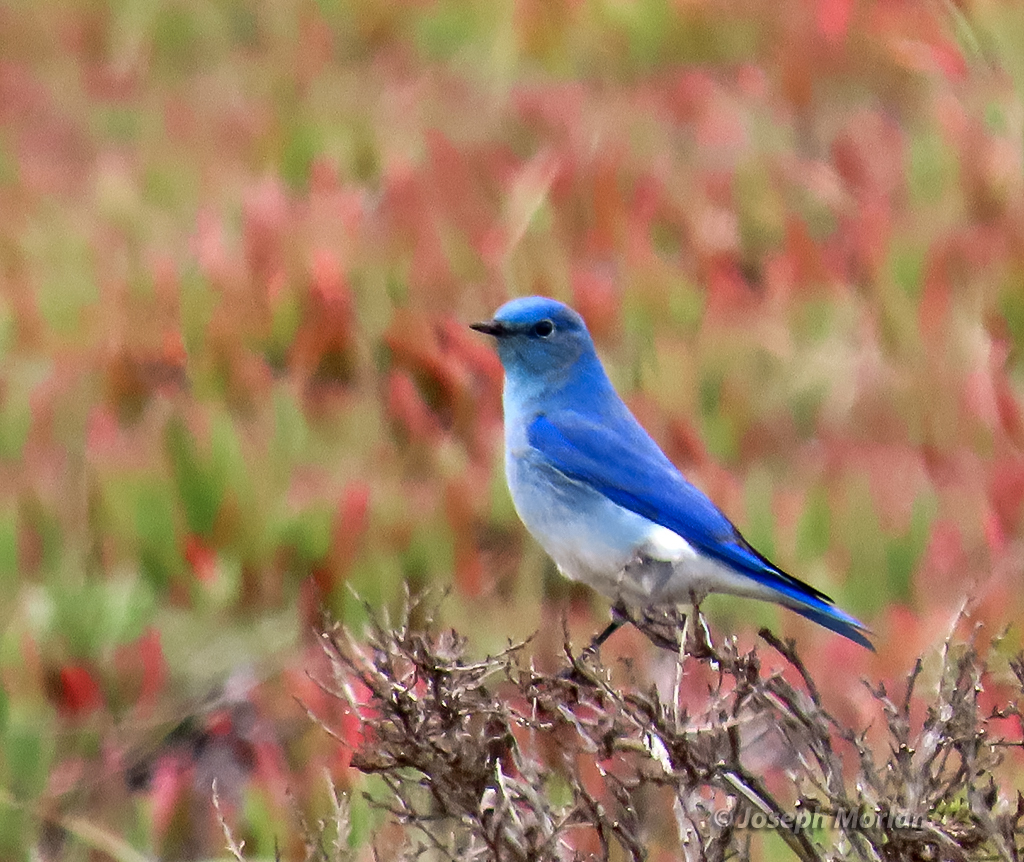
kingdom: Animalia
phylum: Chordata
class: Aves
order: Passeriformes
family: Turdidae
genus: Sialia
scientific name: Sialia currucoides
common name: Mountain bluebird
